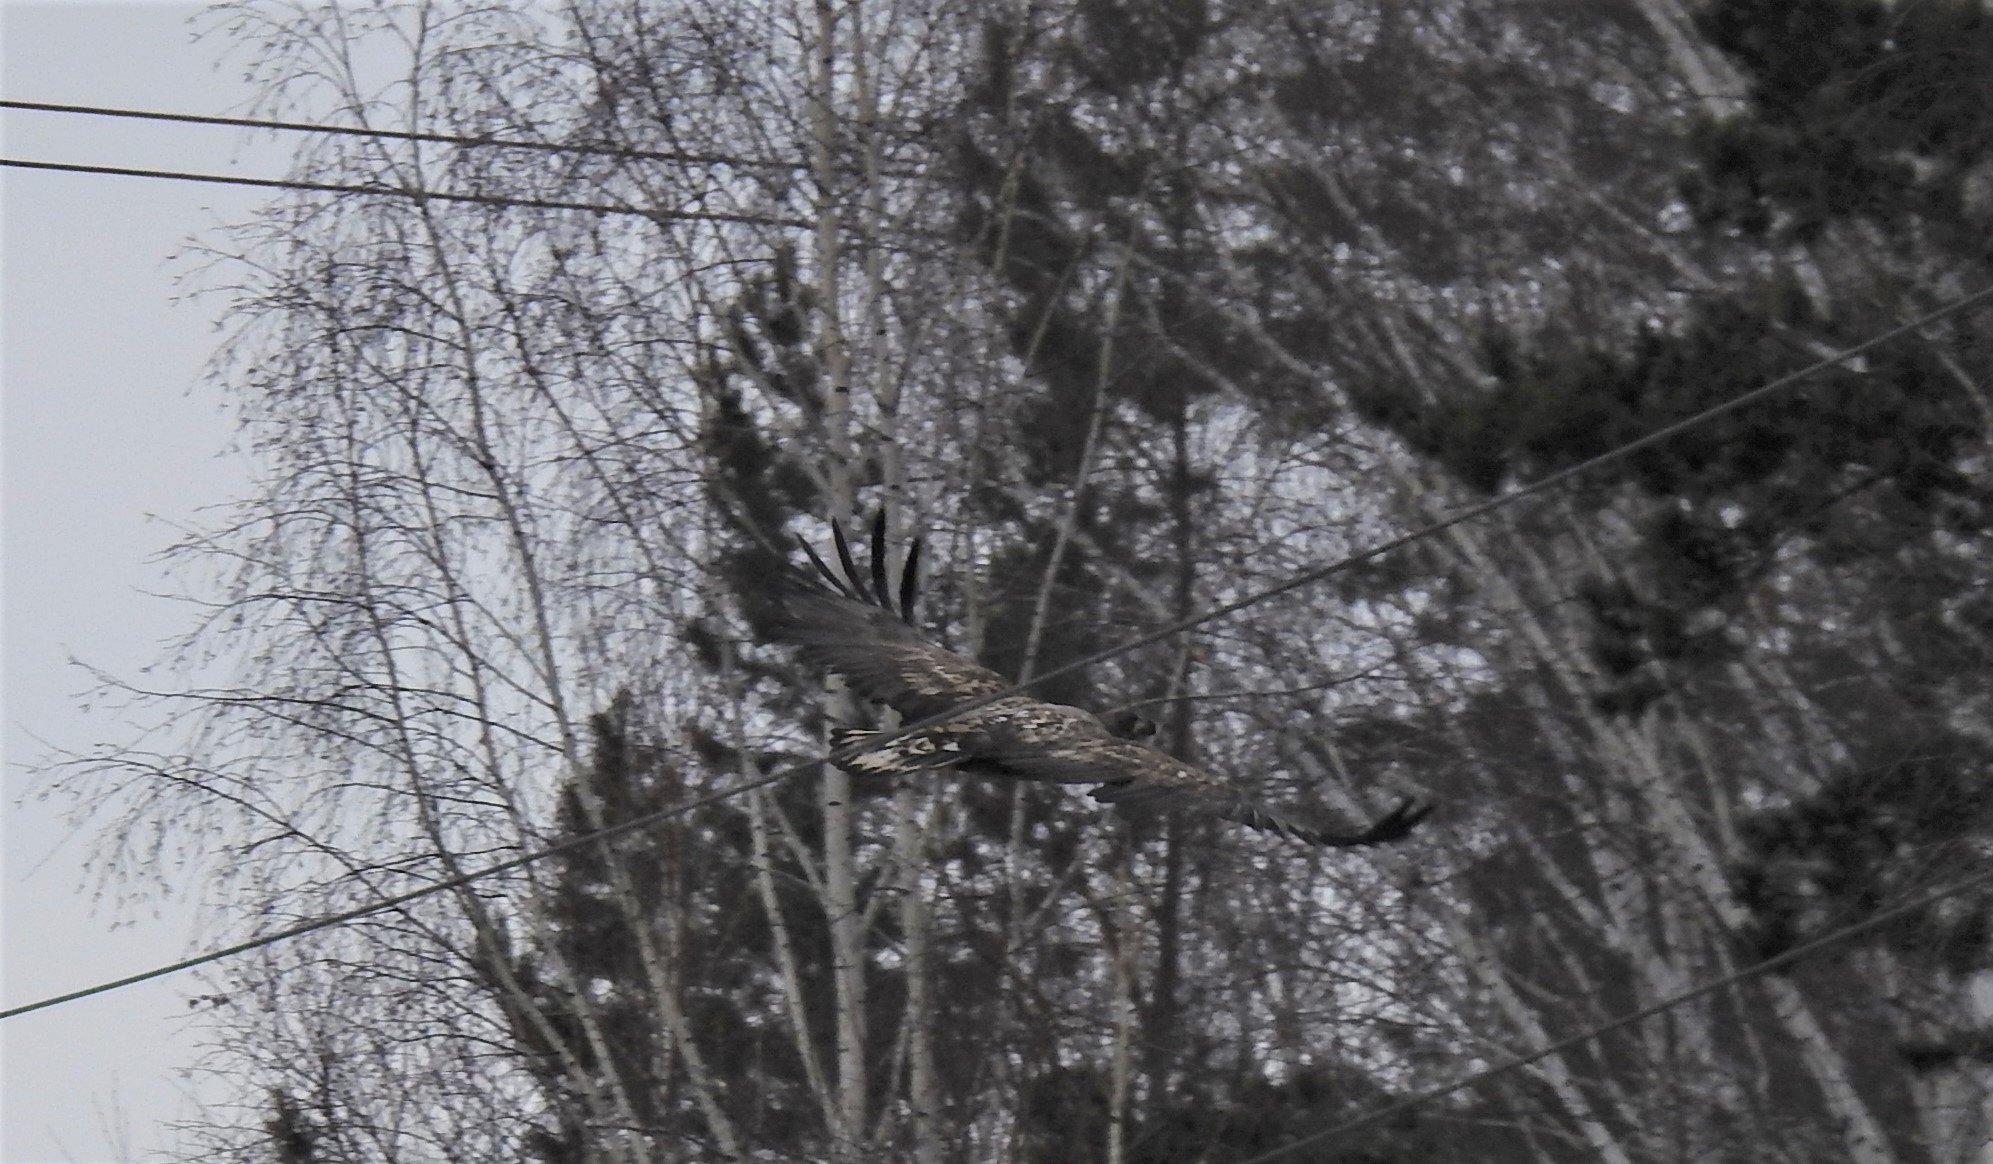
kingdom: Animalia
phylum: Chordata
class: Aves
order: Accipitriformes
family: Accipitridae
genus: Haliaeetus
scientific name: Haliaeetus albicilla
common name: White-tailed eagle
